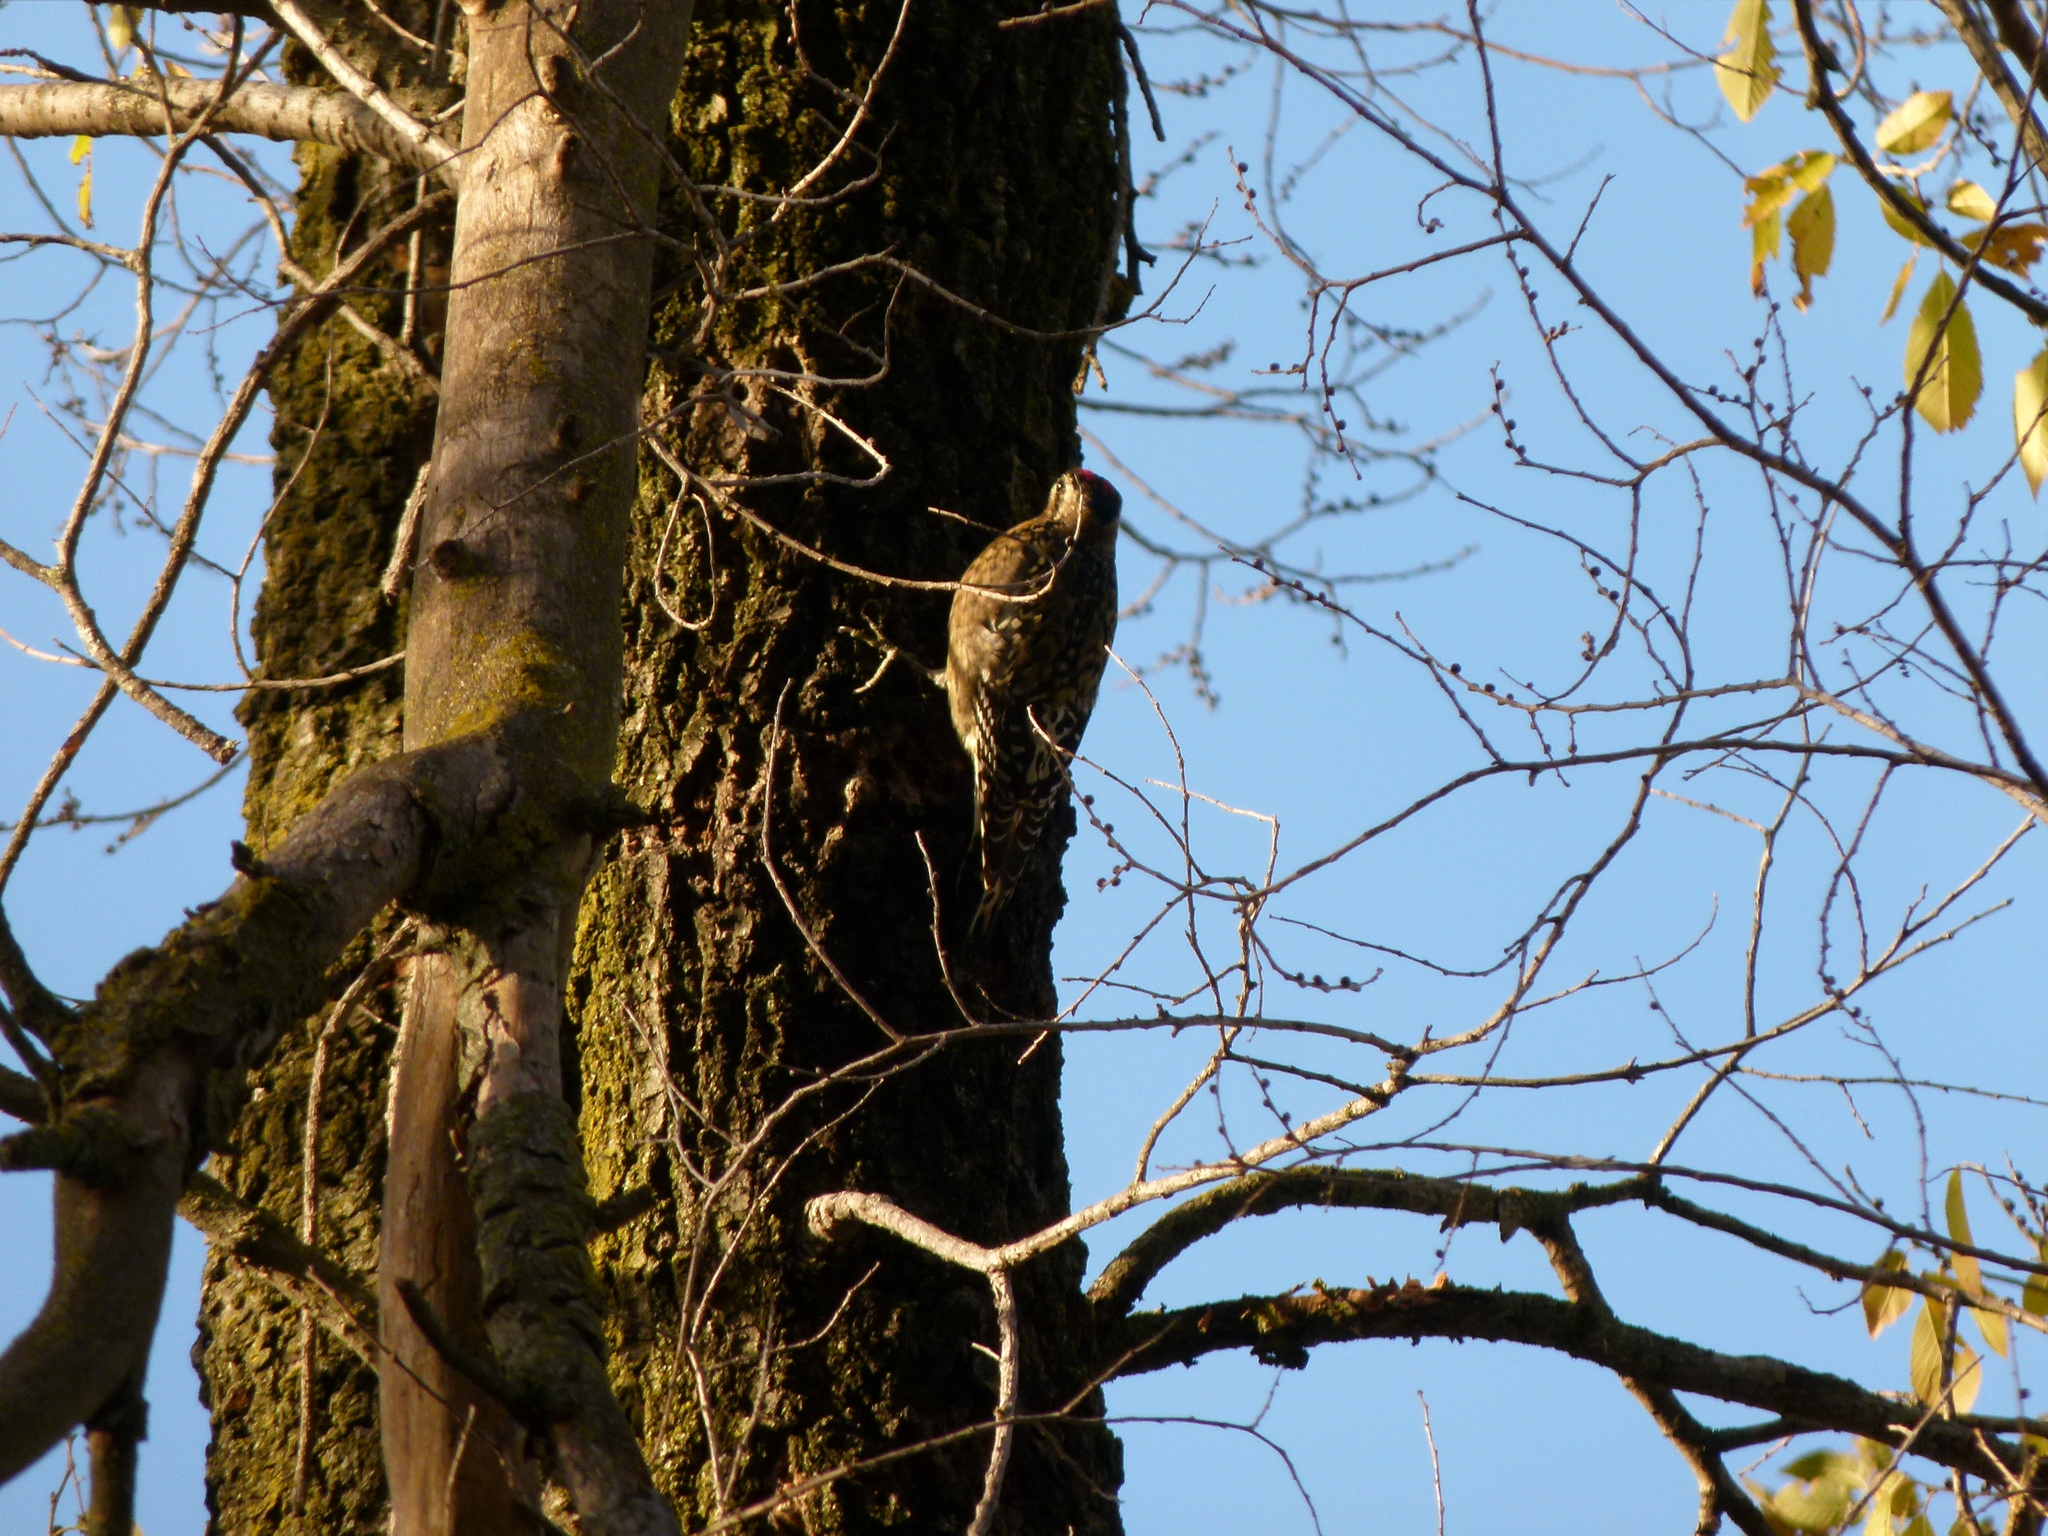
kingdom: Animalia
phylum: Chordata
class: Aves
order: Piciformes
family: Picidae
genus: Sphyrapicus
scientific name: Sphyrapicus varius
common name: Yellow-bellied sapsucker
